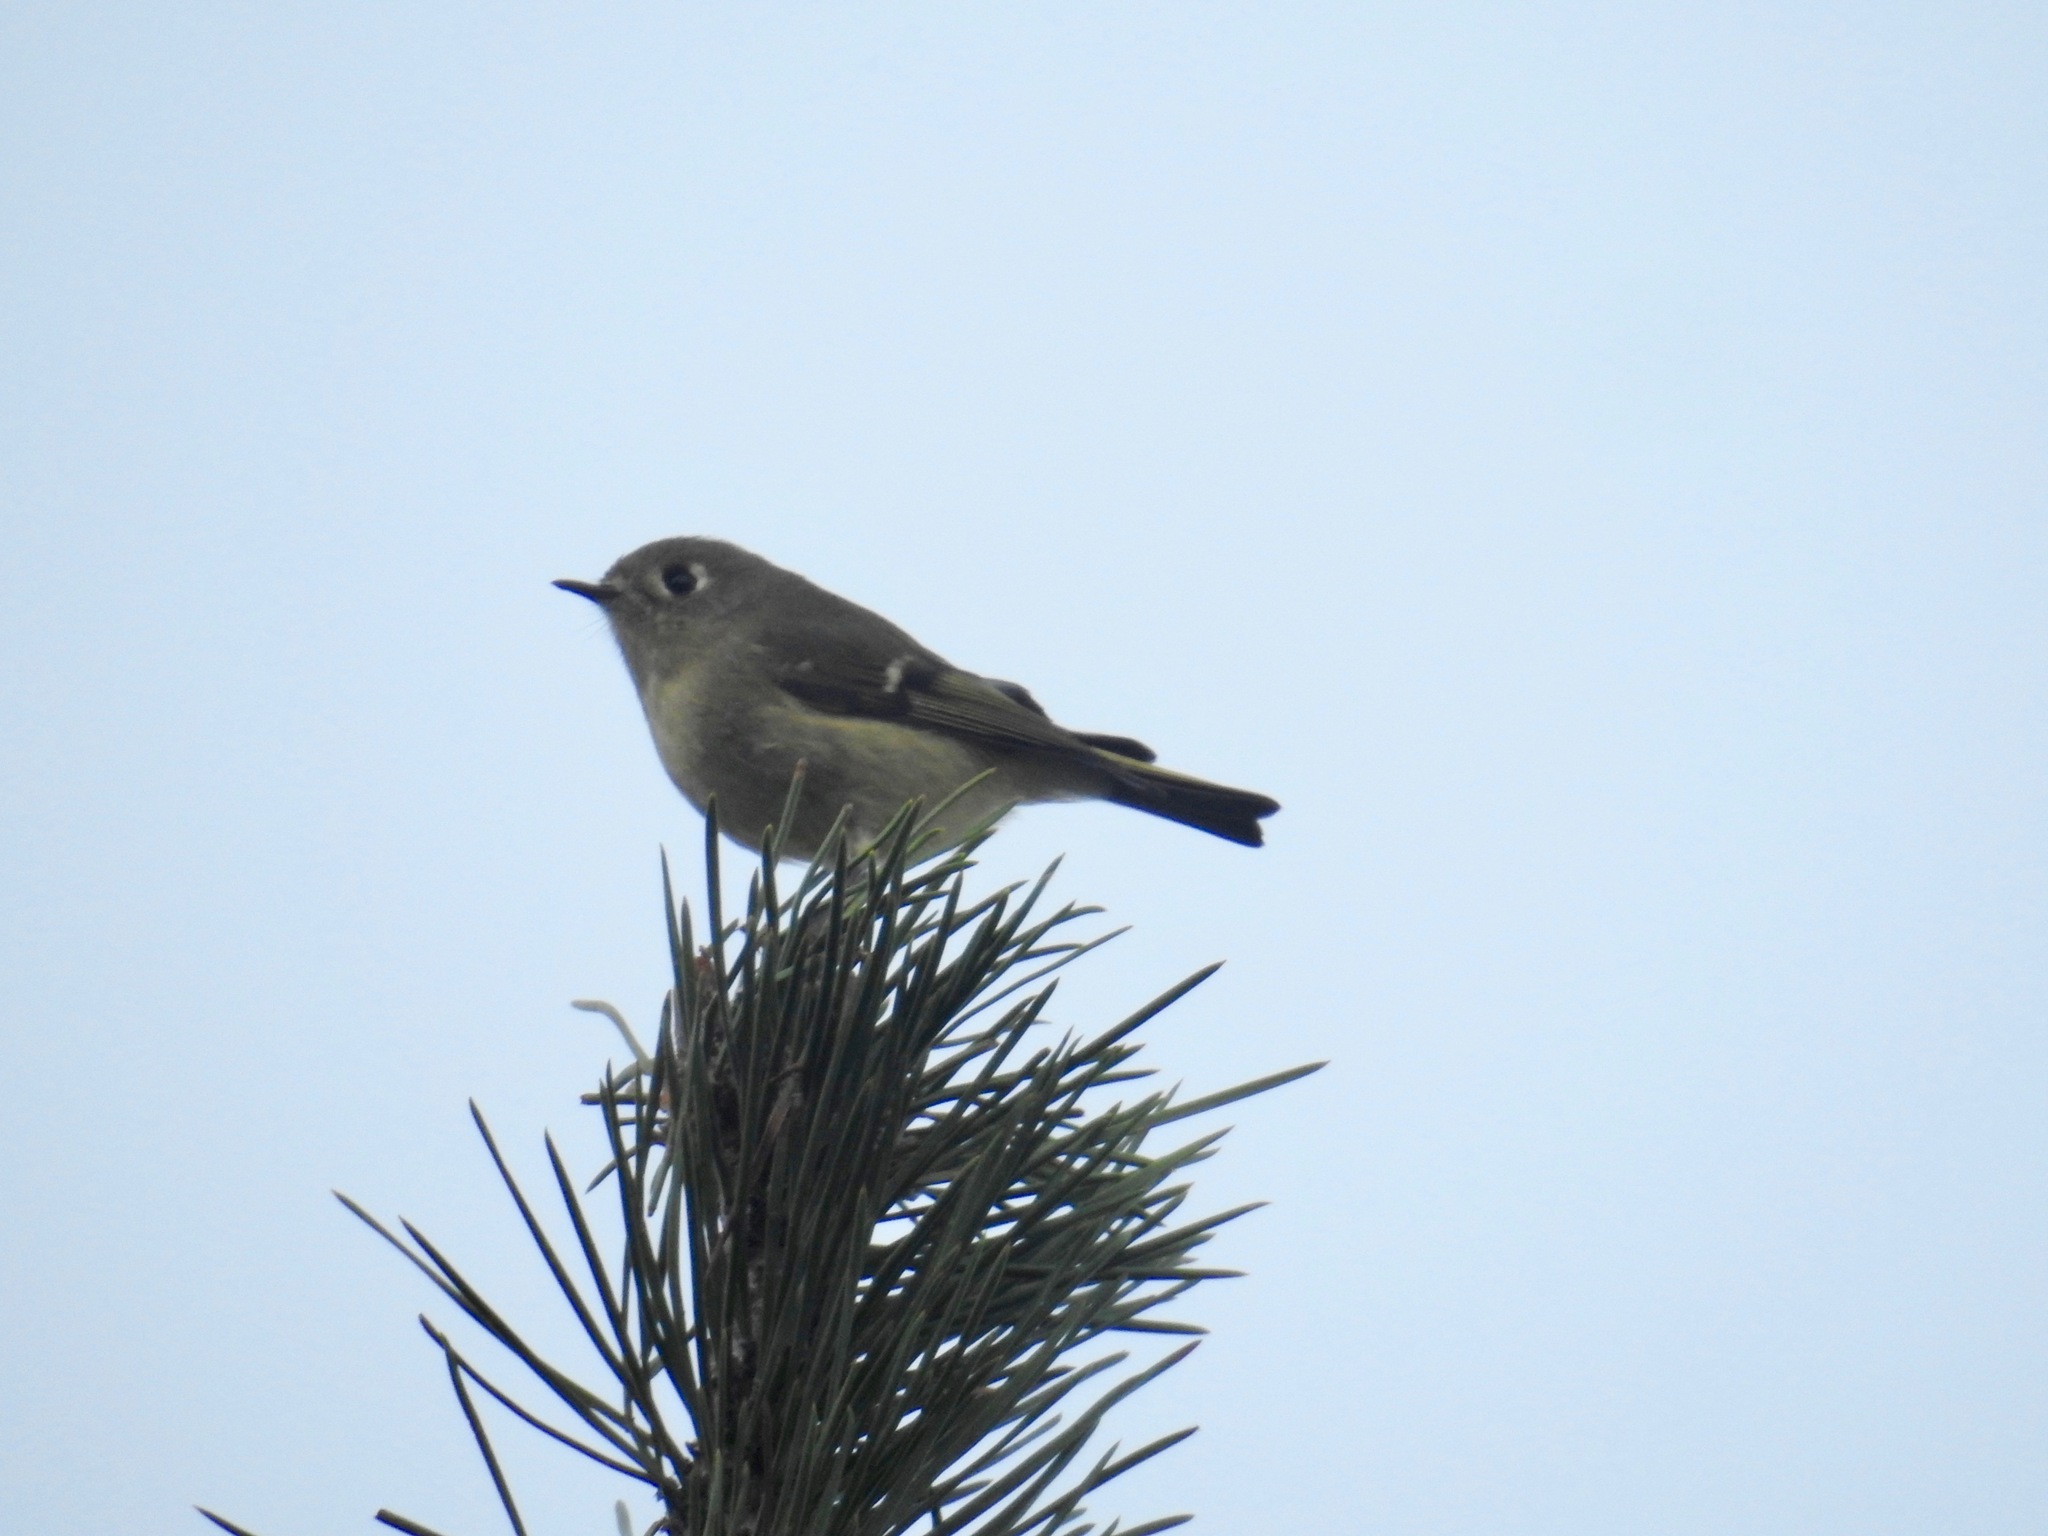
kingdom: Animalia
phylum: Chordata
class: Aves
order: Passeriformes
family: Regulidae
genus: Regulus
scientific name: Regulus calendula
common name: Ruby-crowned kinglet
